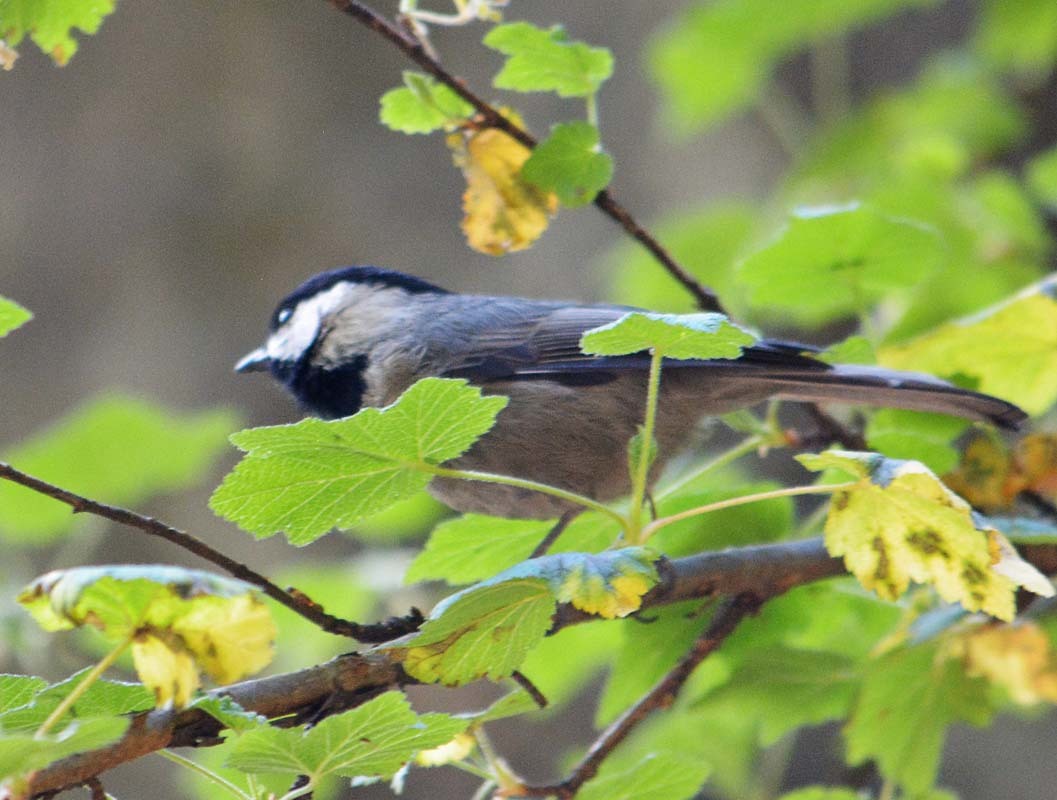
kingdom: Animalia
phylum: Chordata
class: Aves
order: Passeriformes
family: Paridae
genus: Poecile
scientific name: Poecile sclateri
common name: Mexican chickadee
